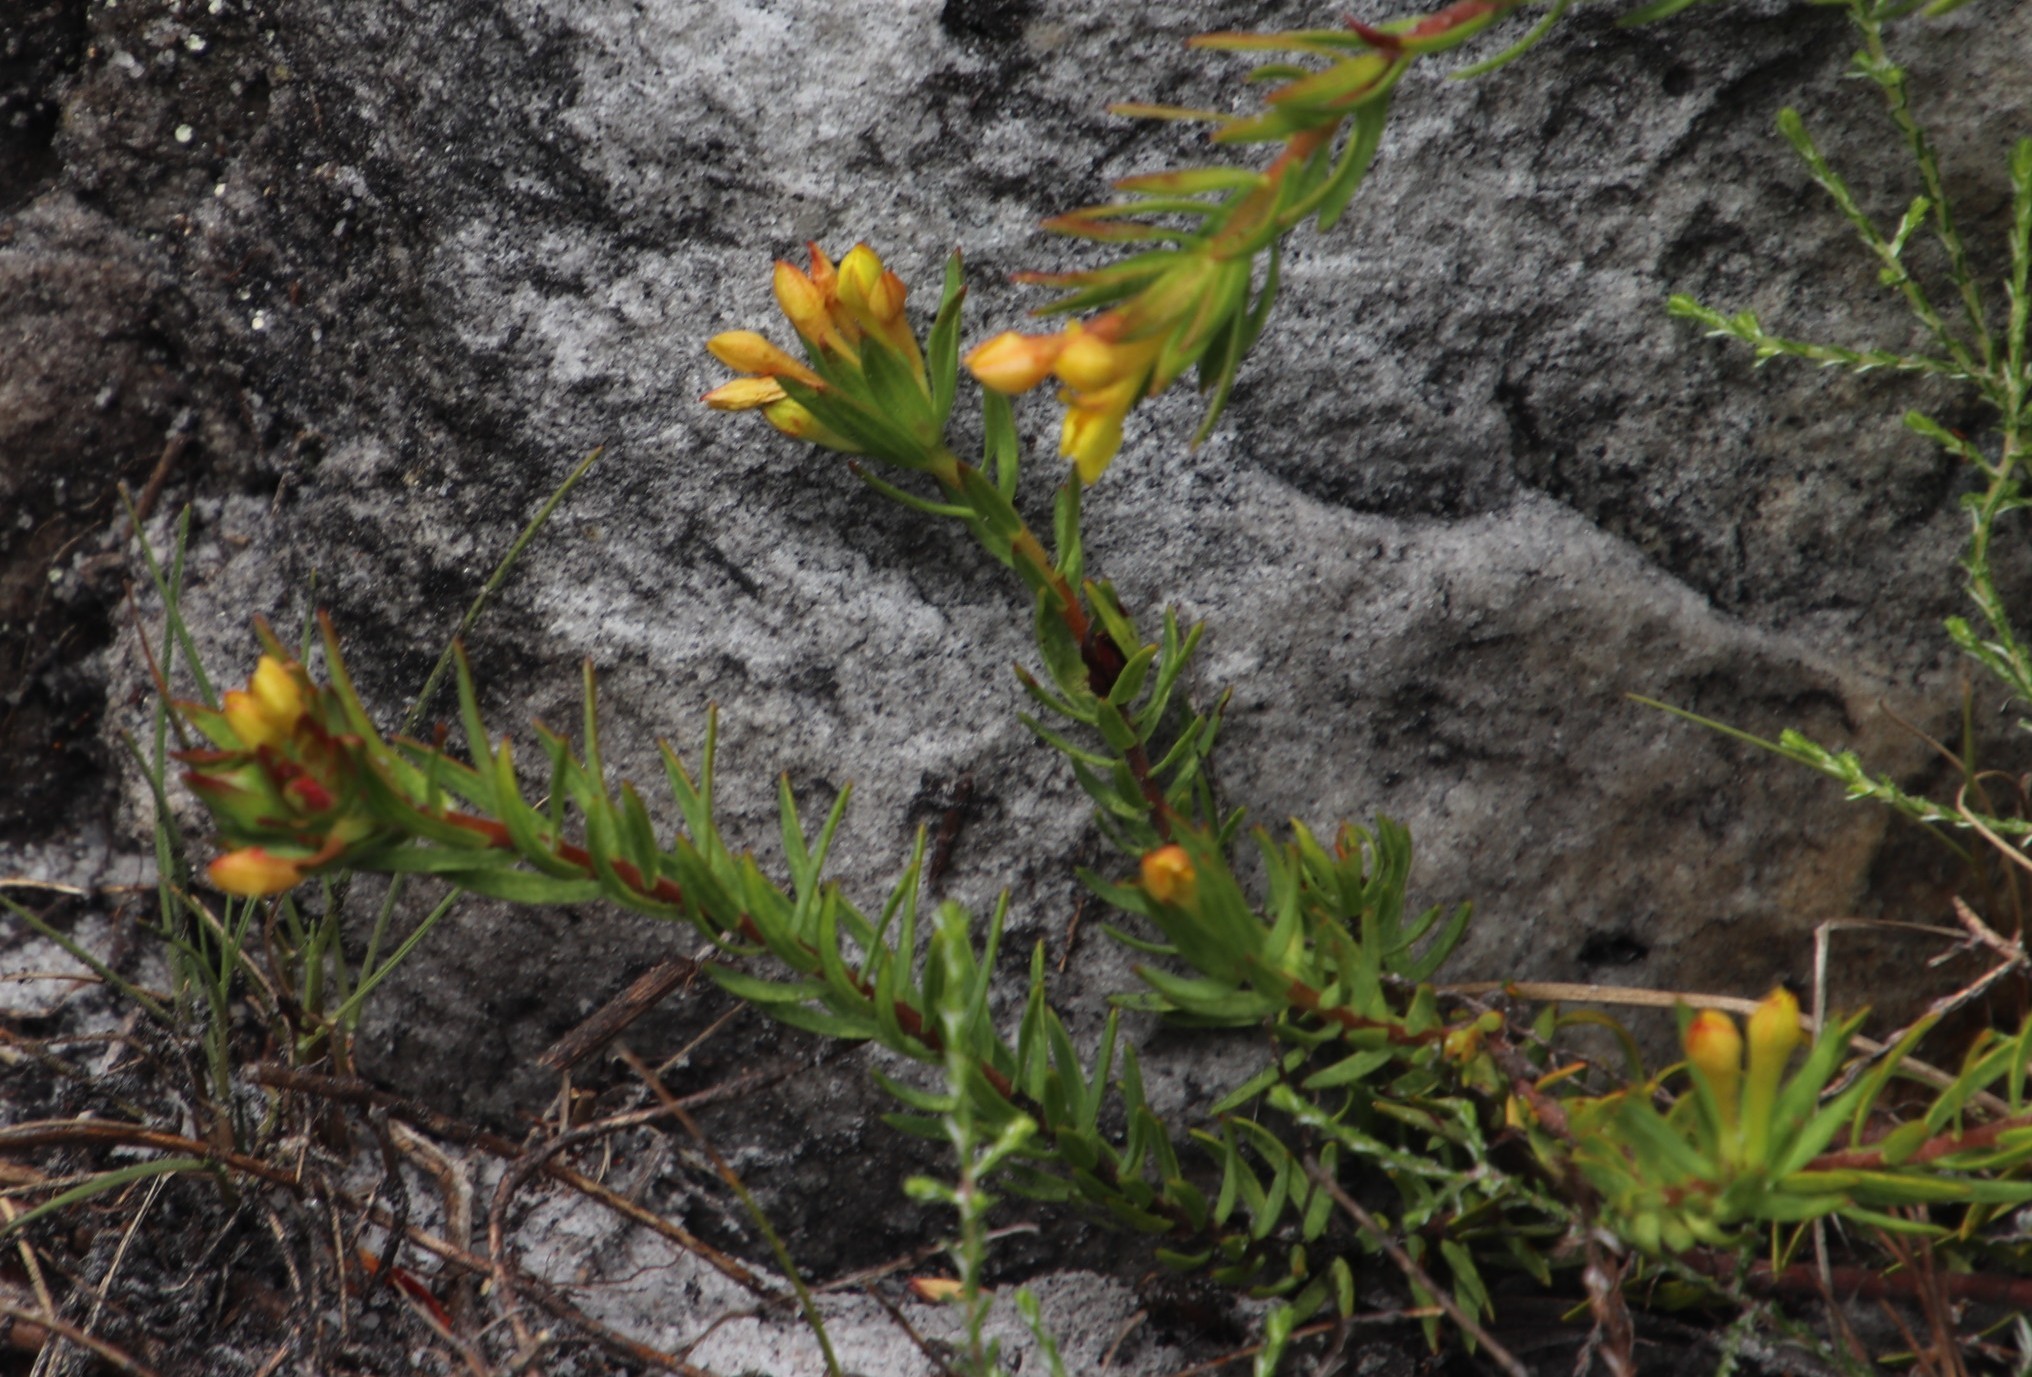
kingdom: Plantae
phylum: Tracheophyta
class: Magnoliopsida
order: Malvales
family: Thymelaeaceae
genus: Gnidia
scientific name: Gnidia juniperifolia
